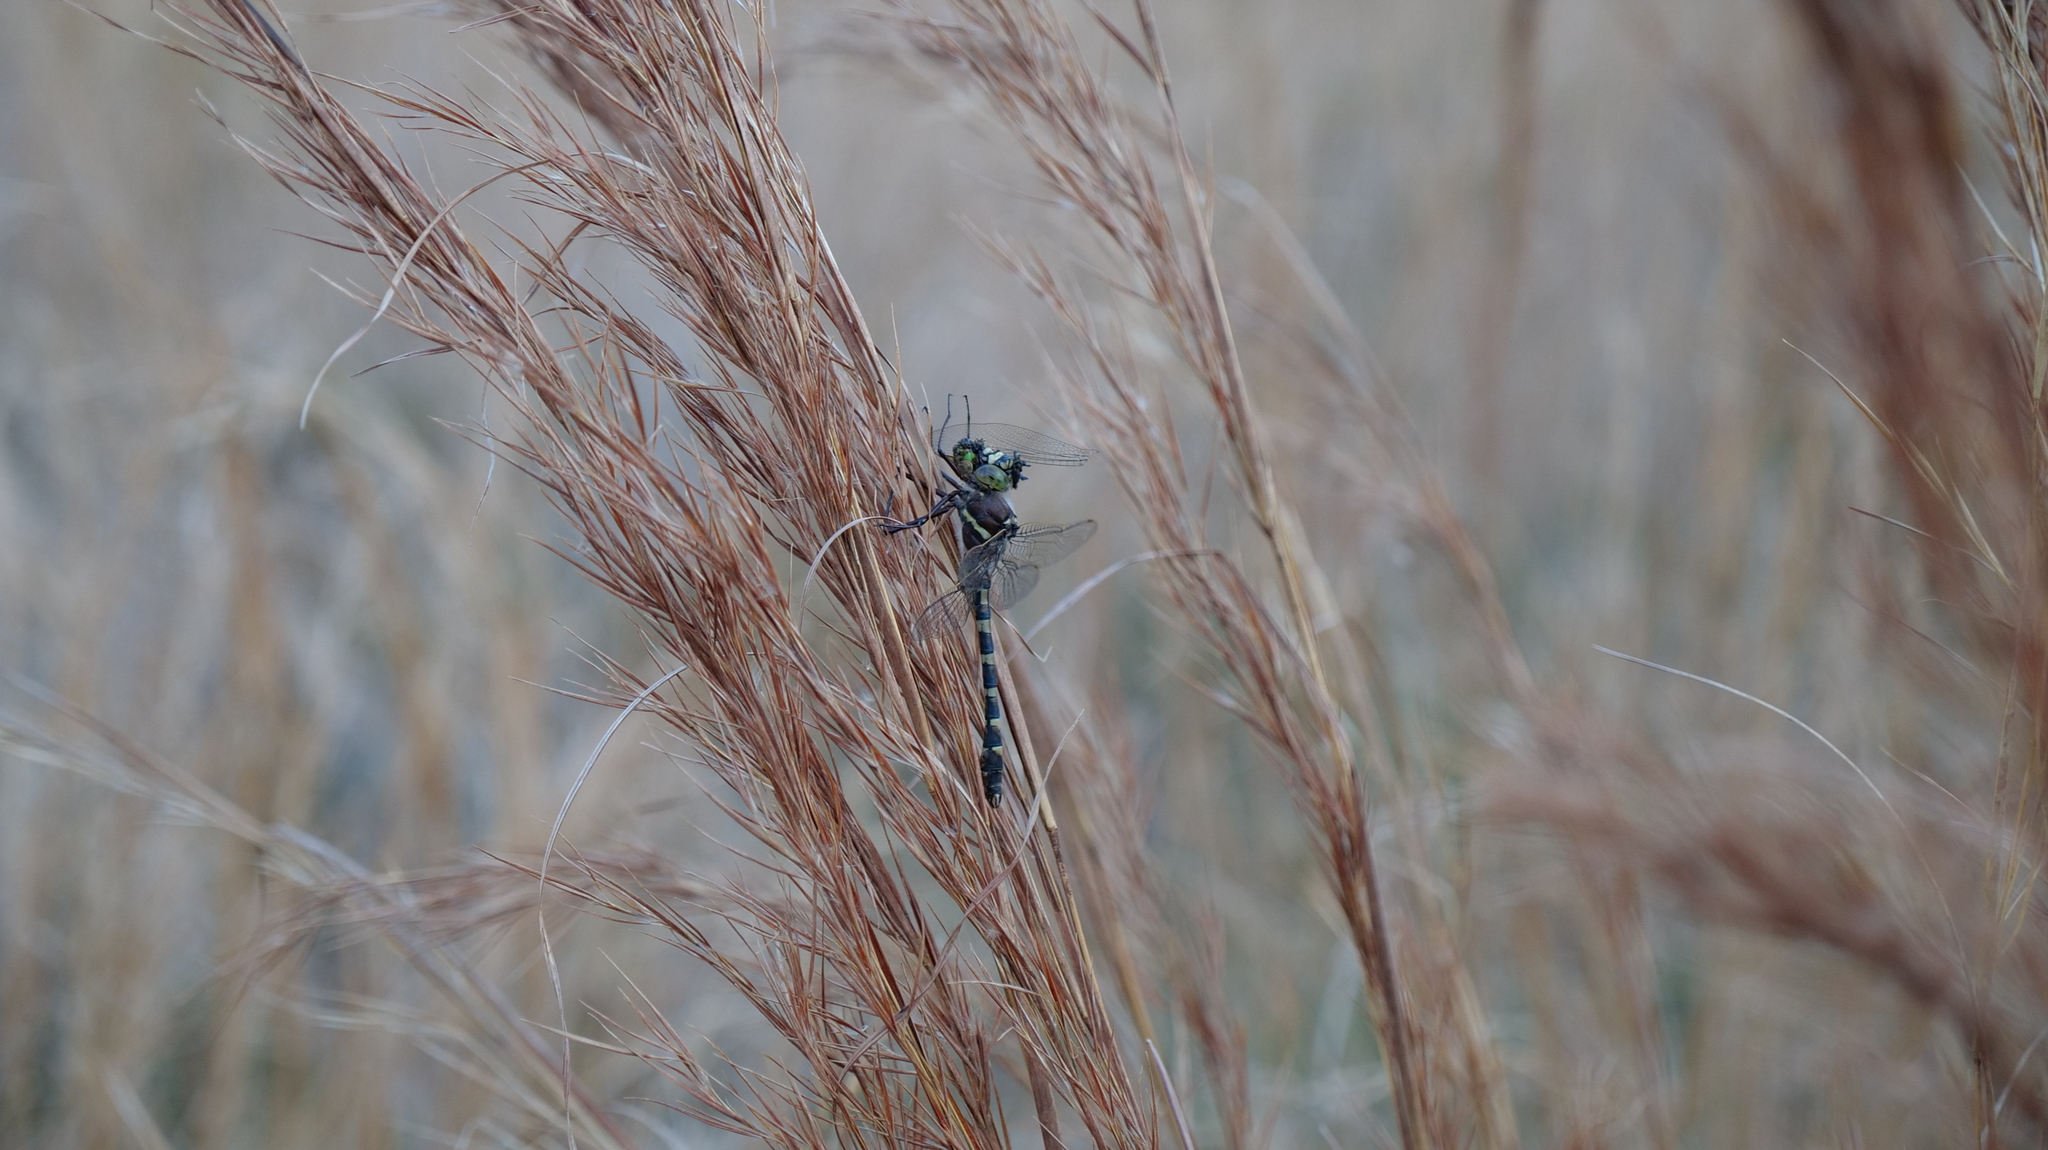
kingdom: Animalia
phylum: Arthropoda
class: Insecta
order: Odonata
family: Macromiidae
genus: Didymops
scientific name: Didymops floridensis
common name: Florida cruiser
